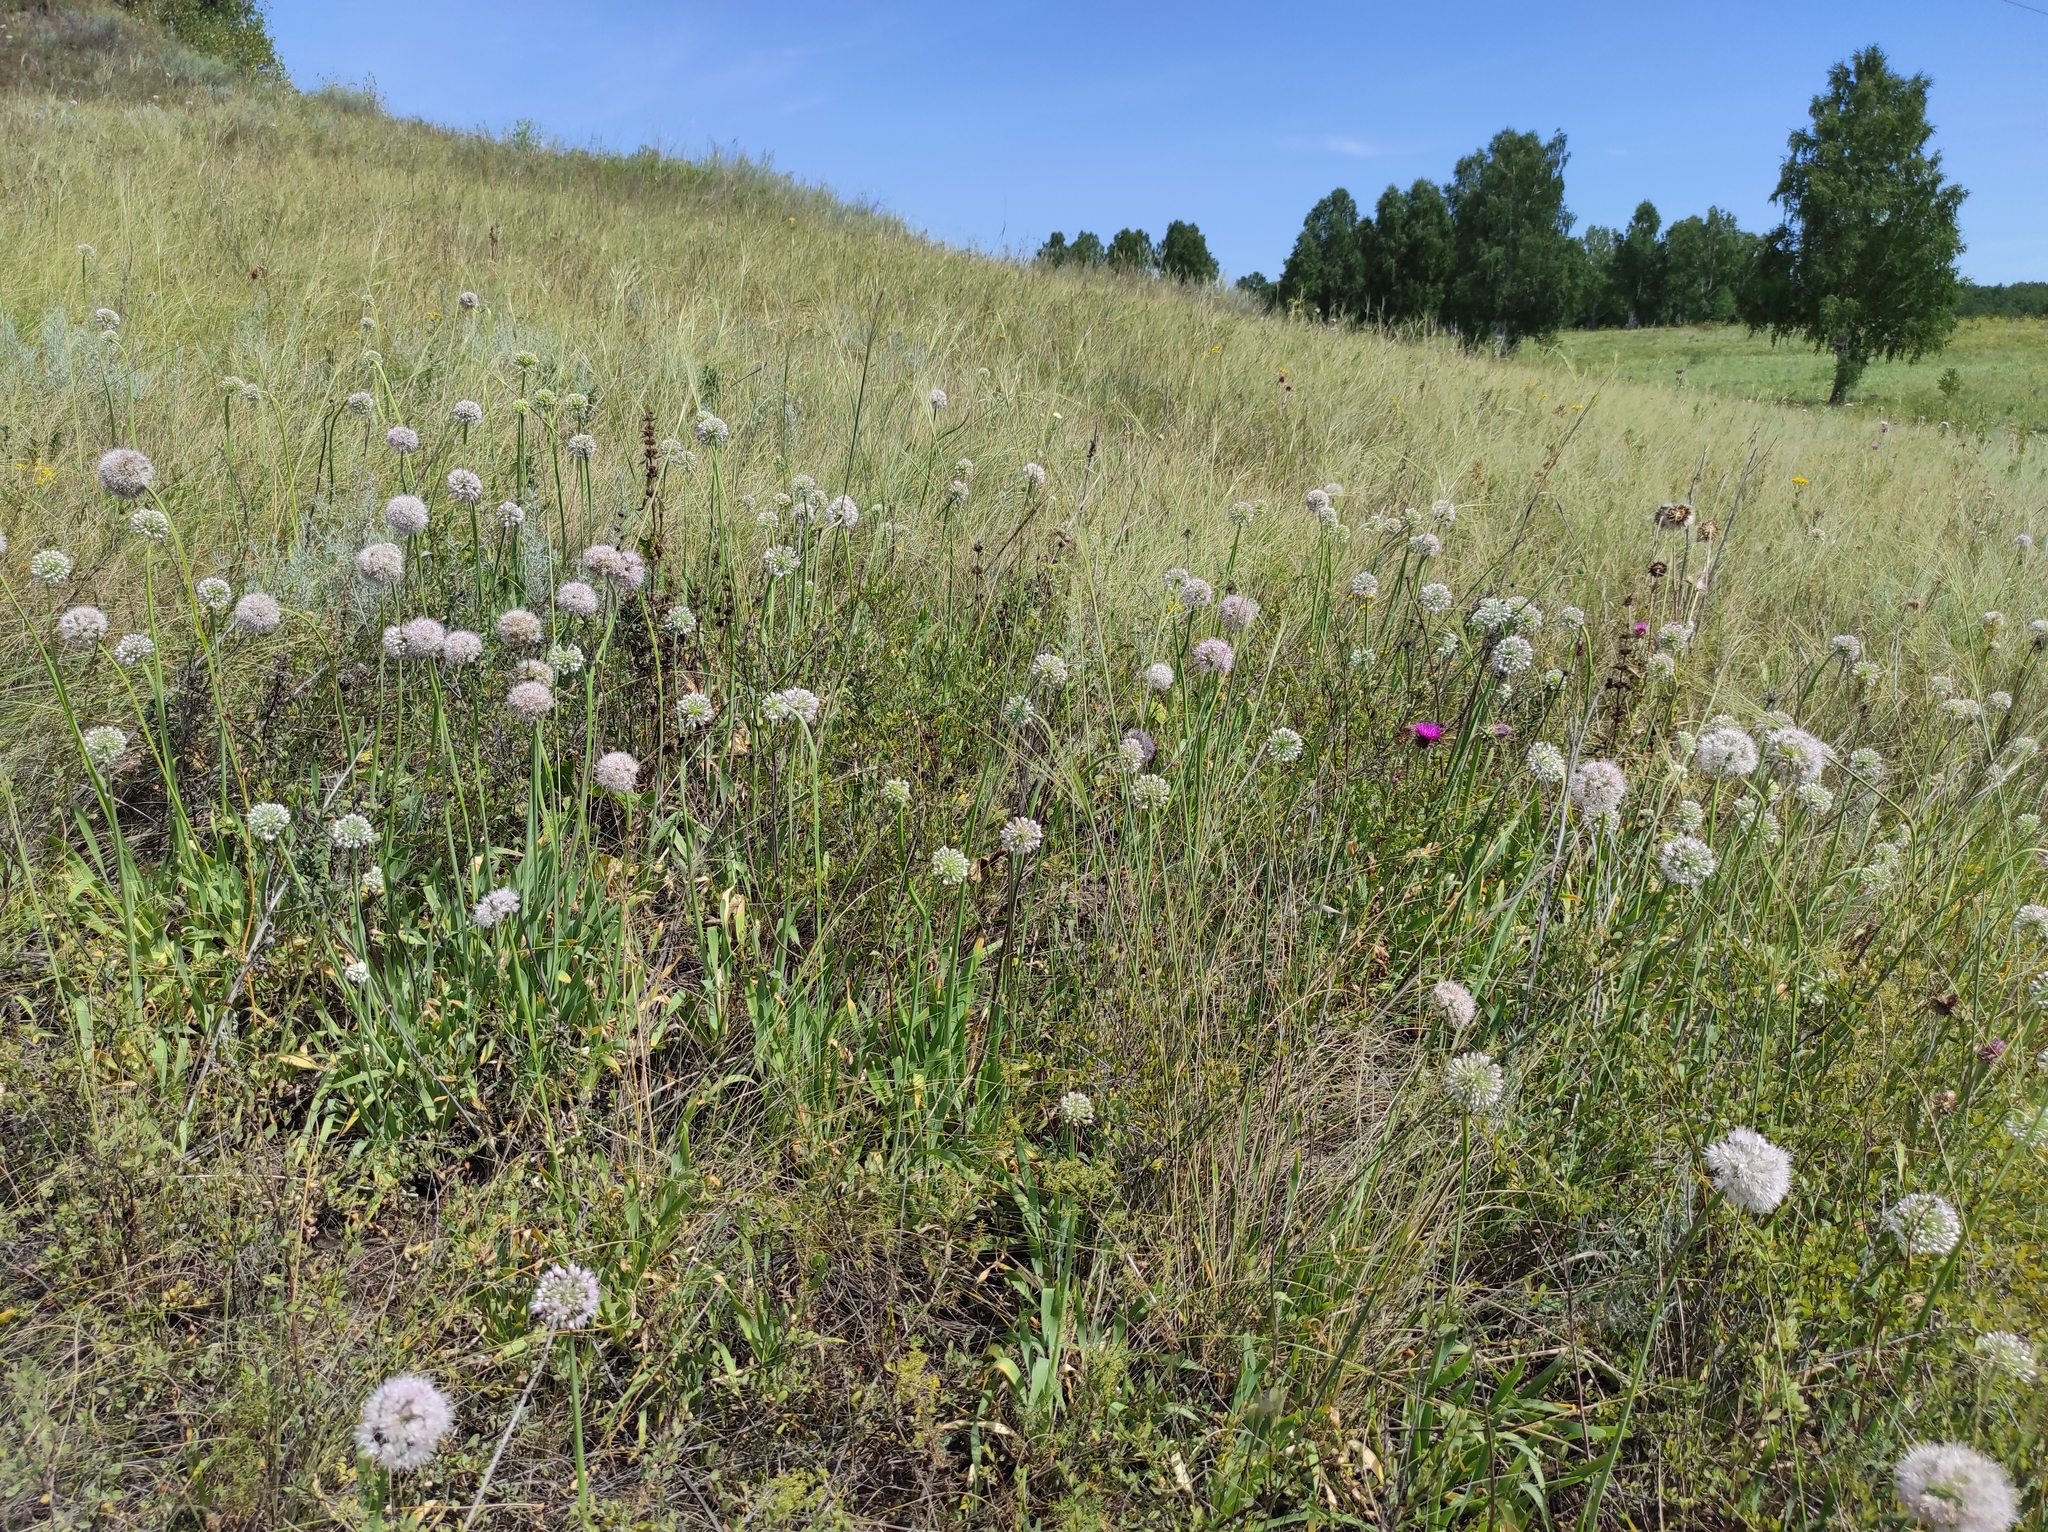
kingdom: Plantae
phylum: Tracheophyta
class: Liliopsida
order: Asparagales
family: Amaryllidaceae
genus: Allium
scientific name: Allium nutans
